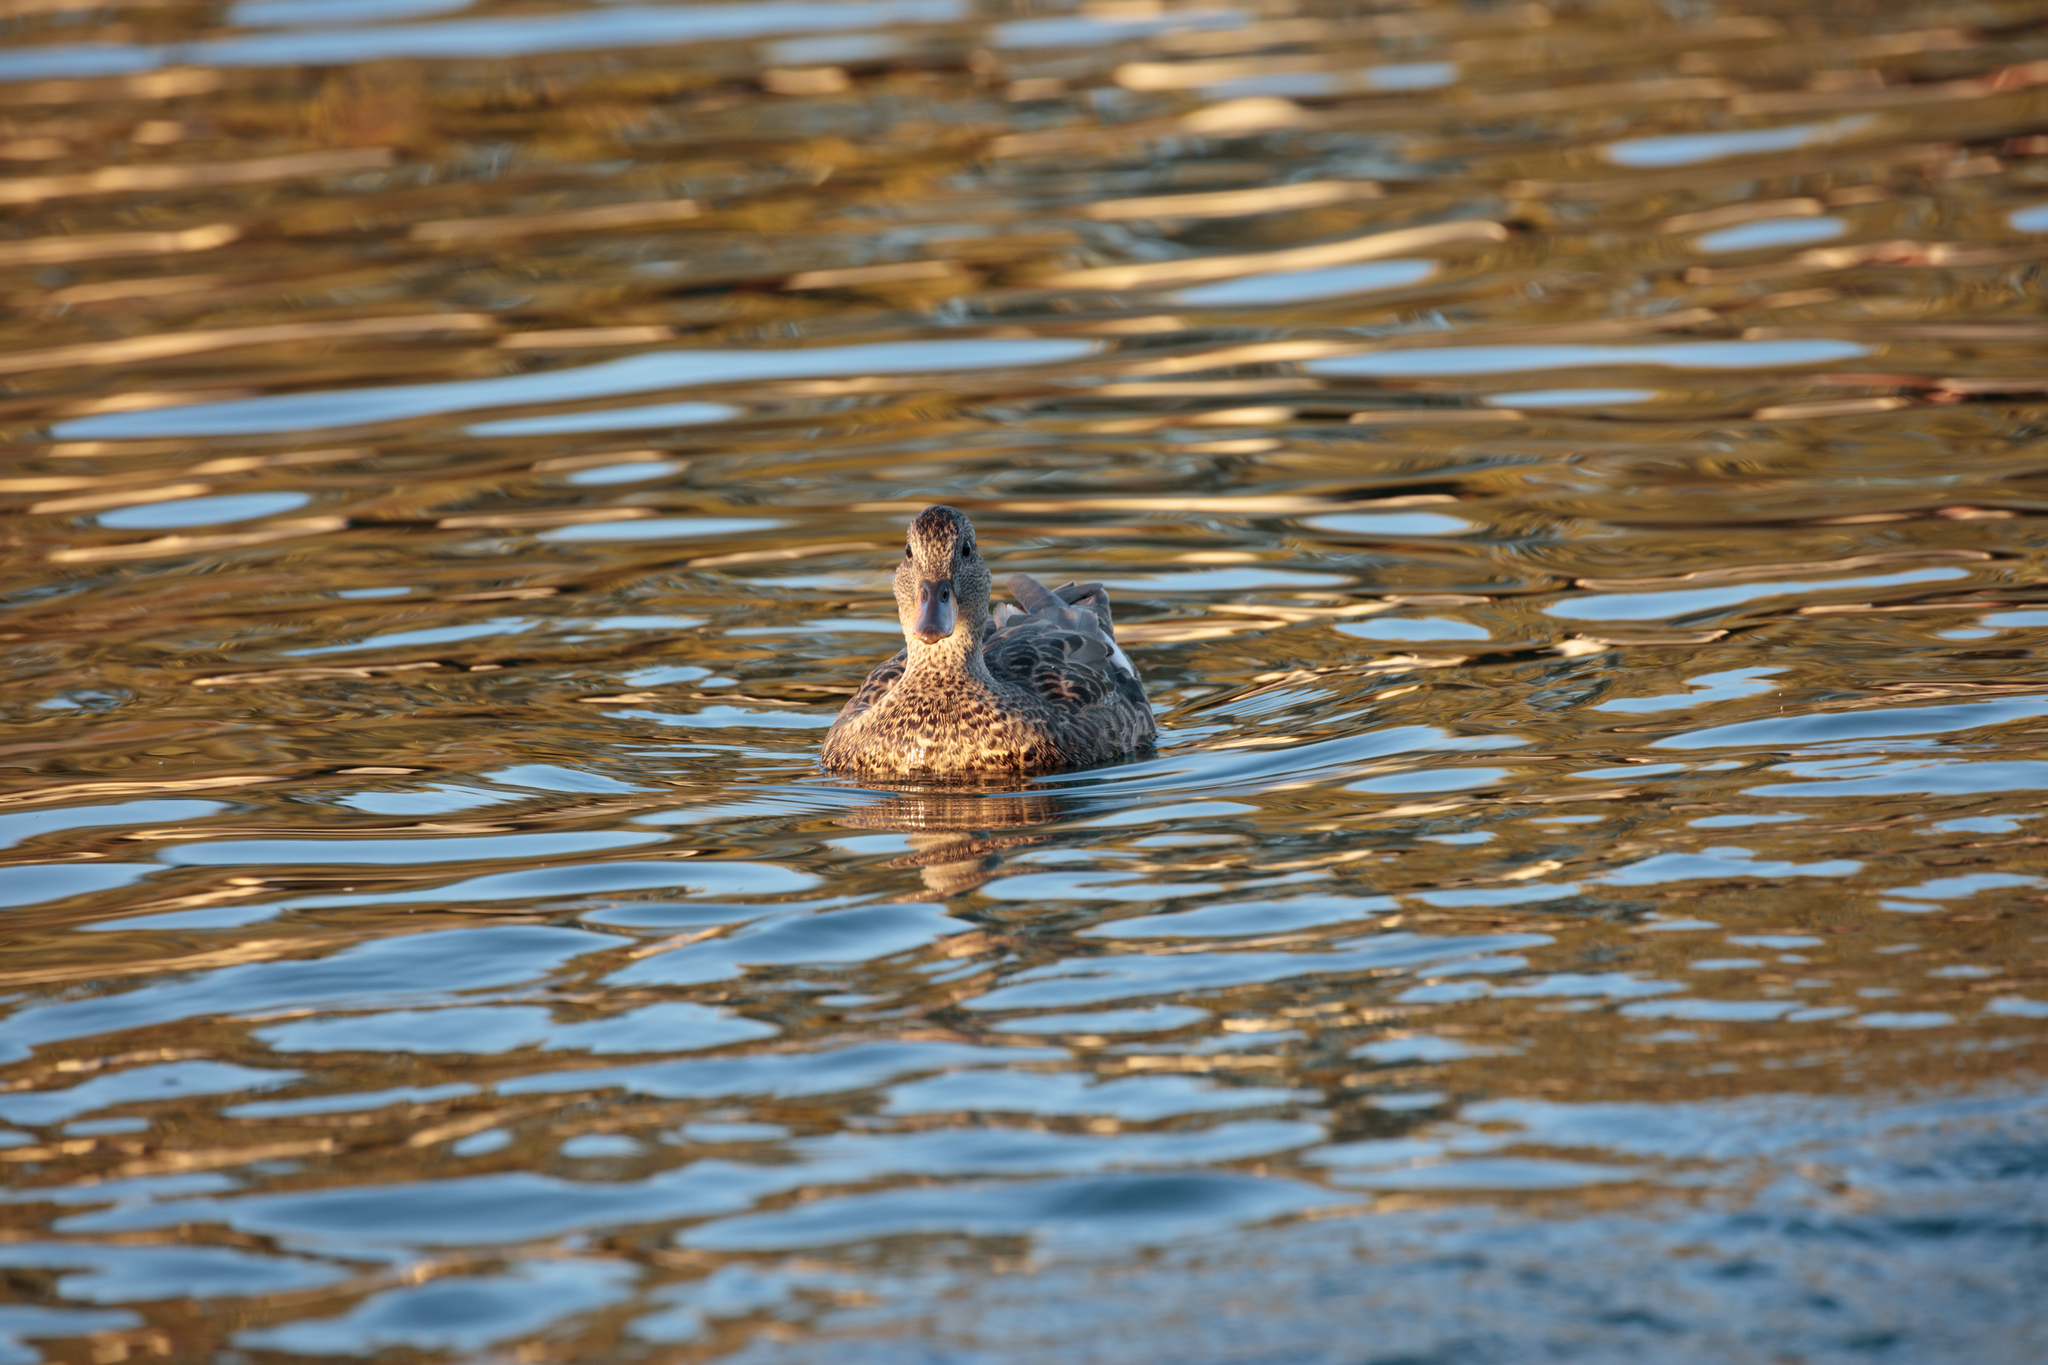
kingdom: Animalia
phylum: Chordata
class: Aves
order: Anseriformes
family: Anatidae
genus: Mareca
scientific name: Mareca strepera
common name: Gadwall
